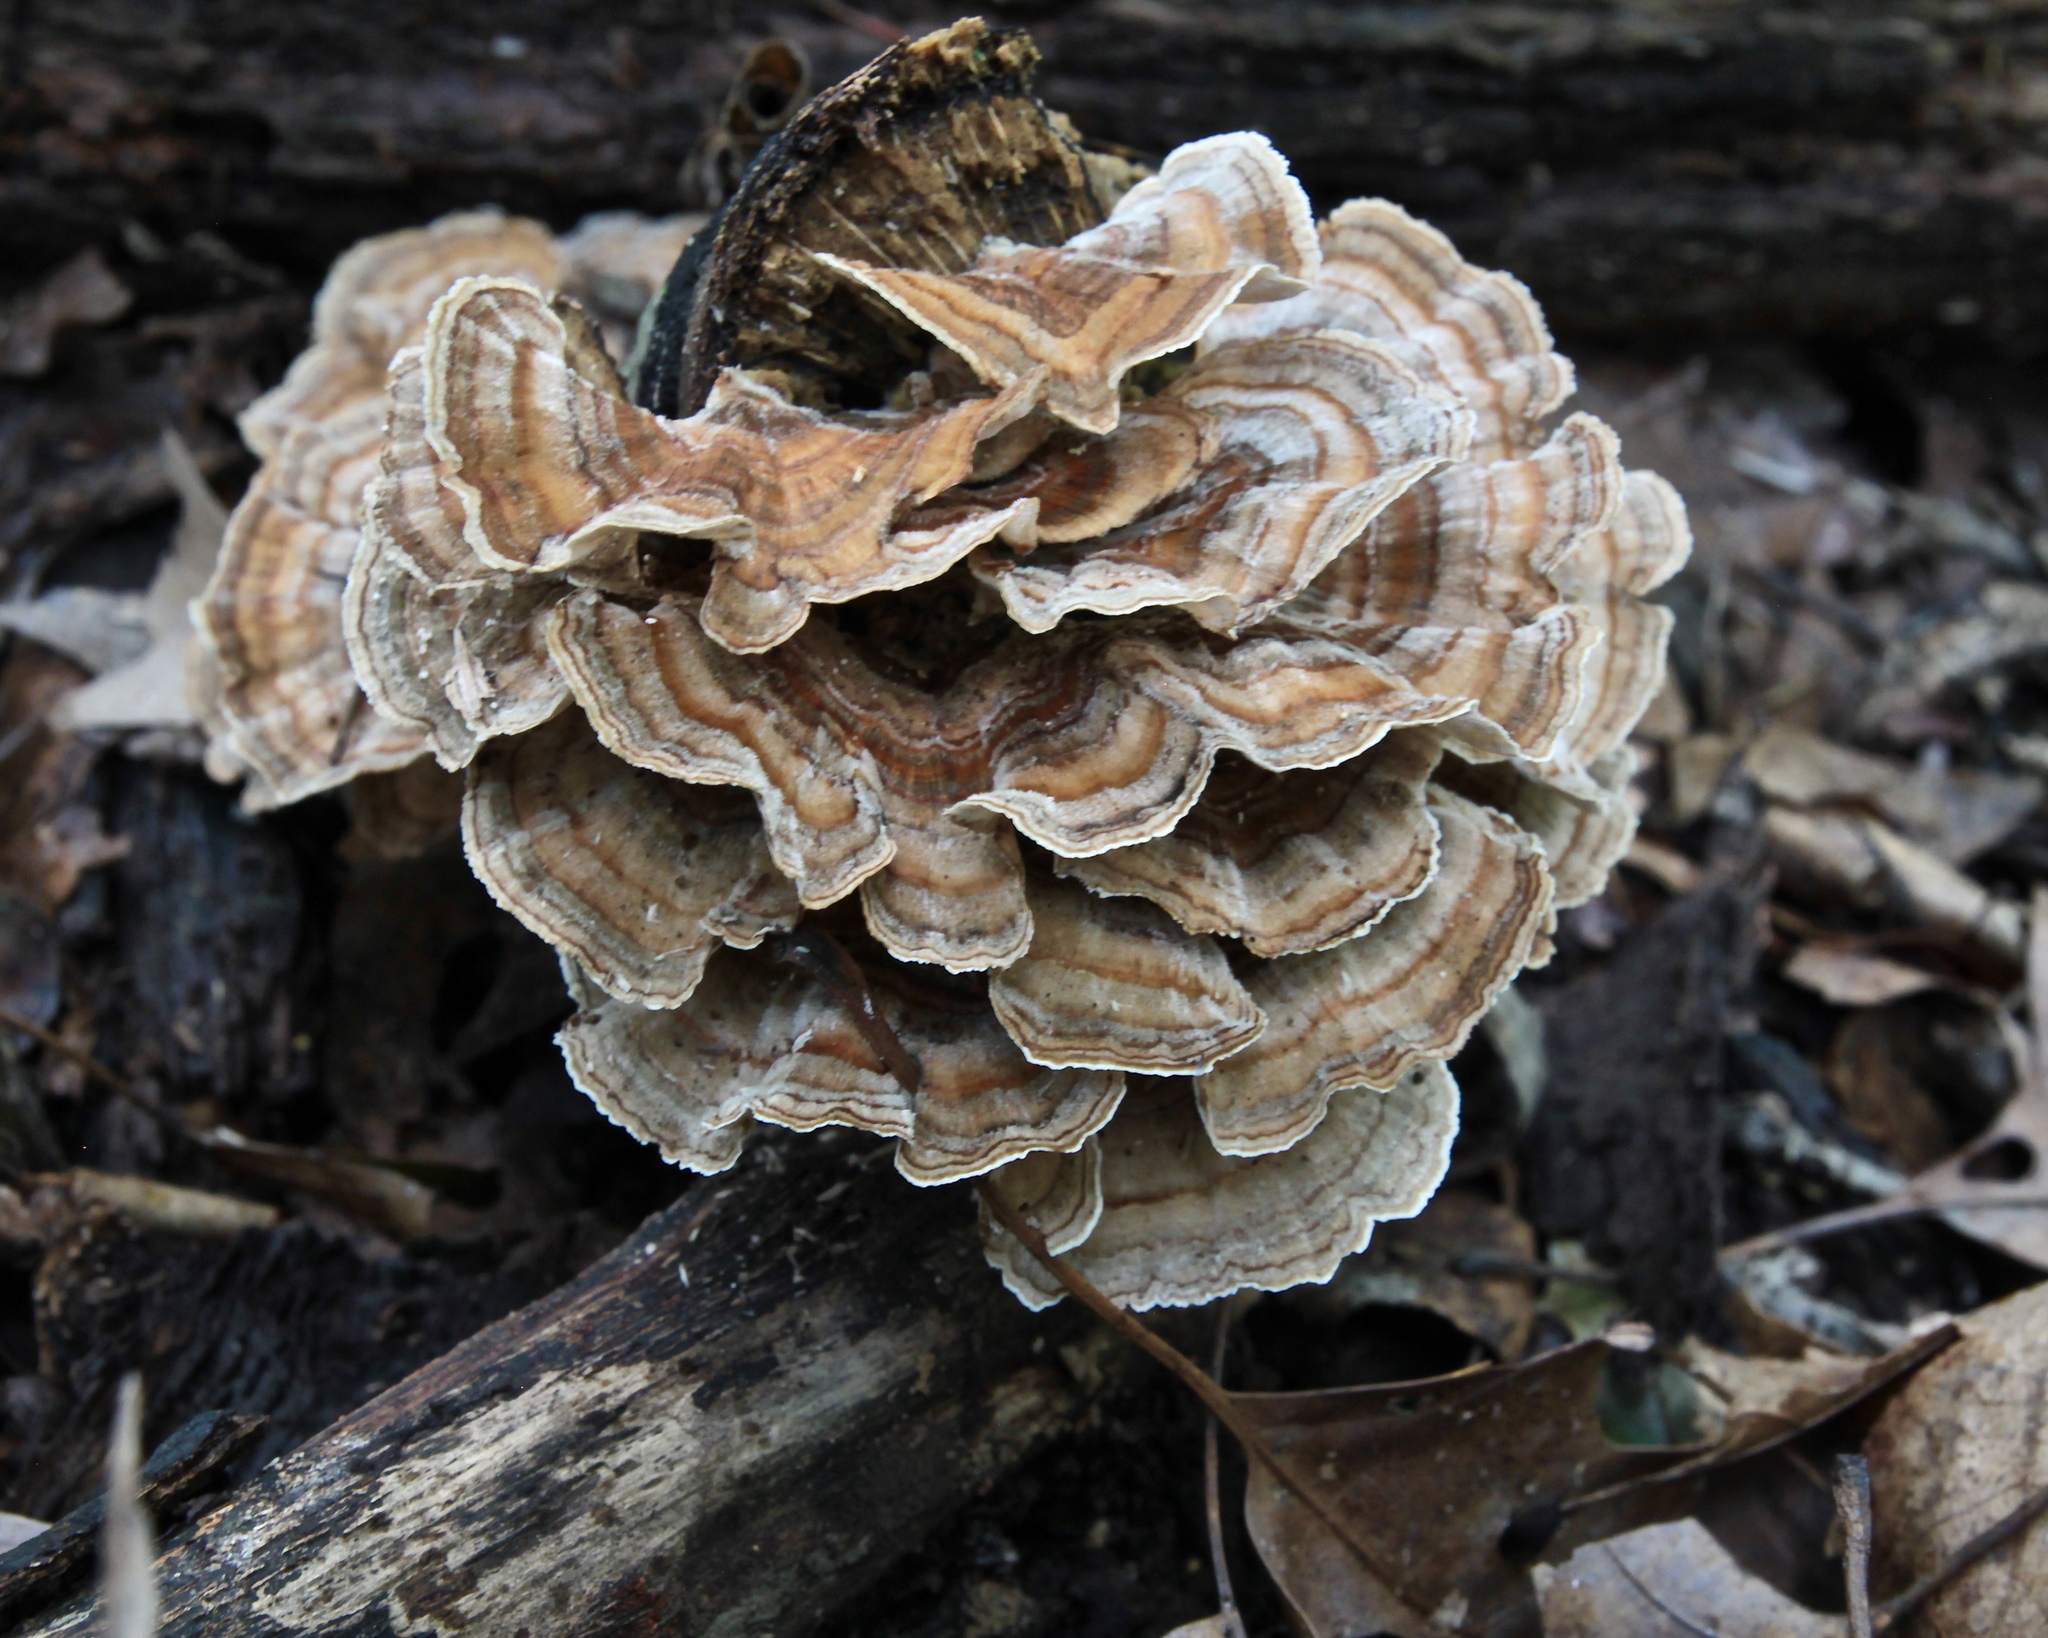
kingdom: Fungi
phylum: Basidiomycota
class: Agaricomycetes
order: Polyporales
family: Polyporaceae
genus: Trametes
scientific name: Trametes versicolor
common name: Turkeytail
